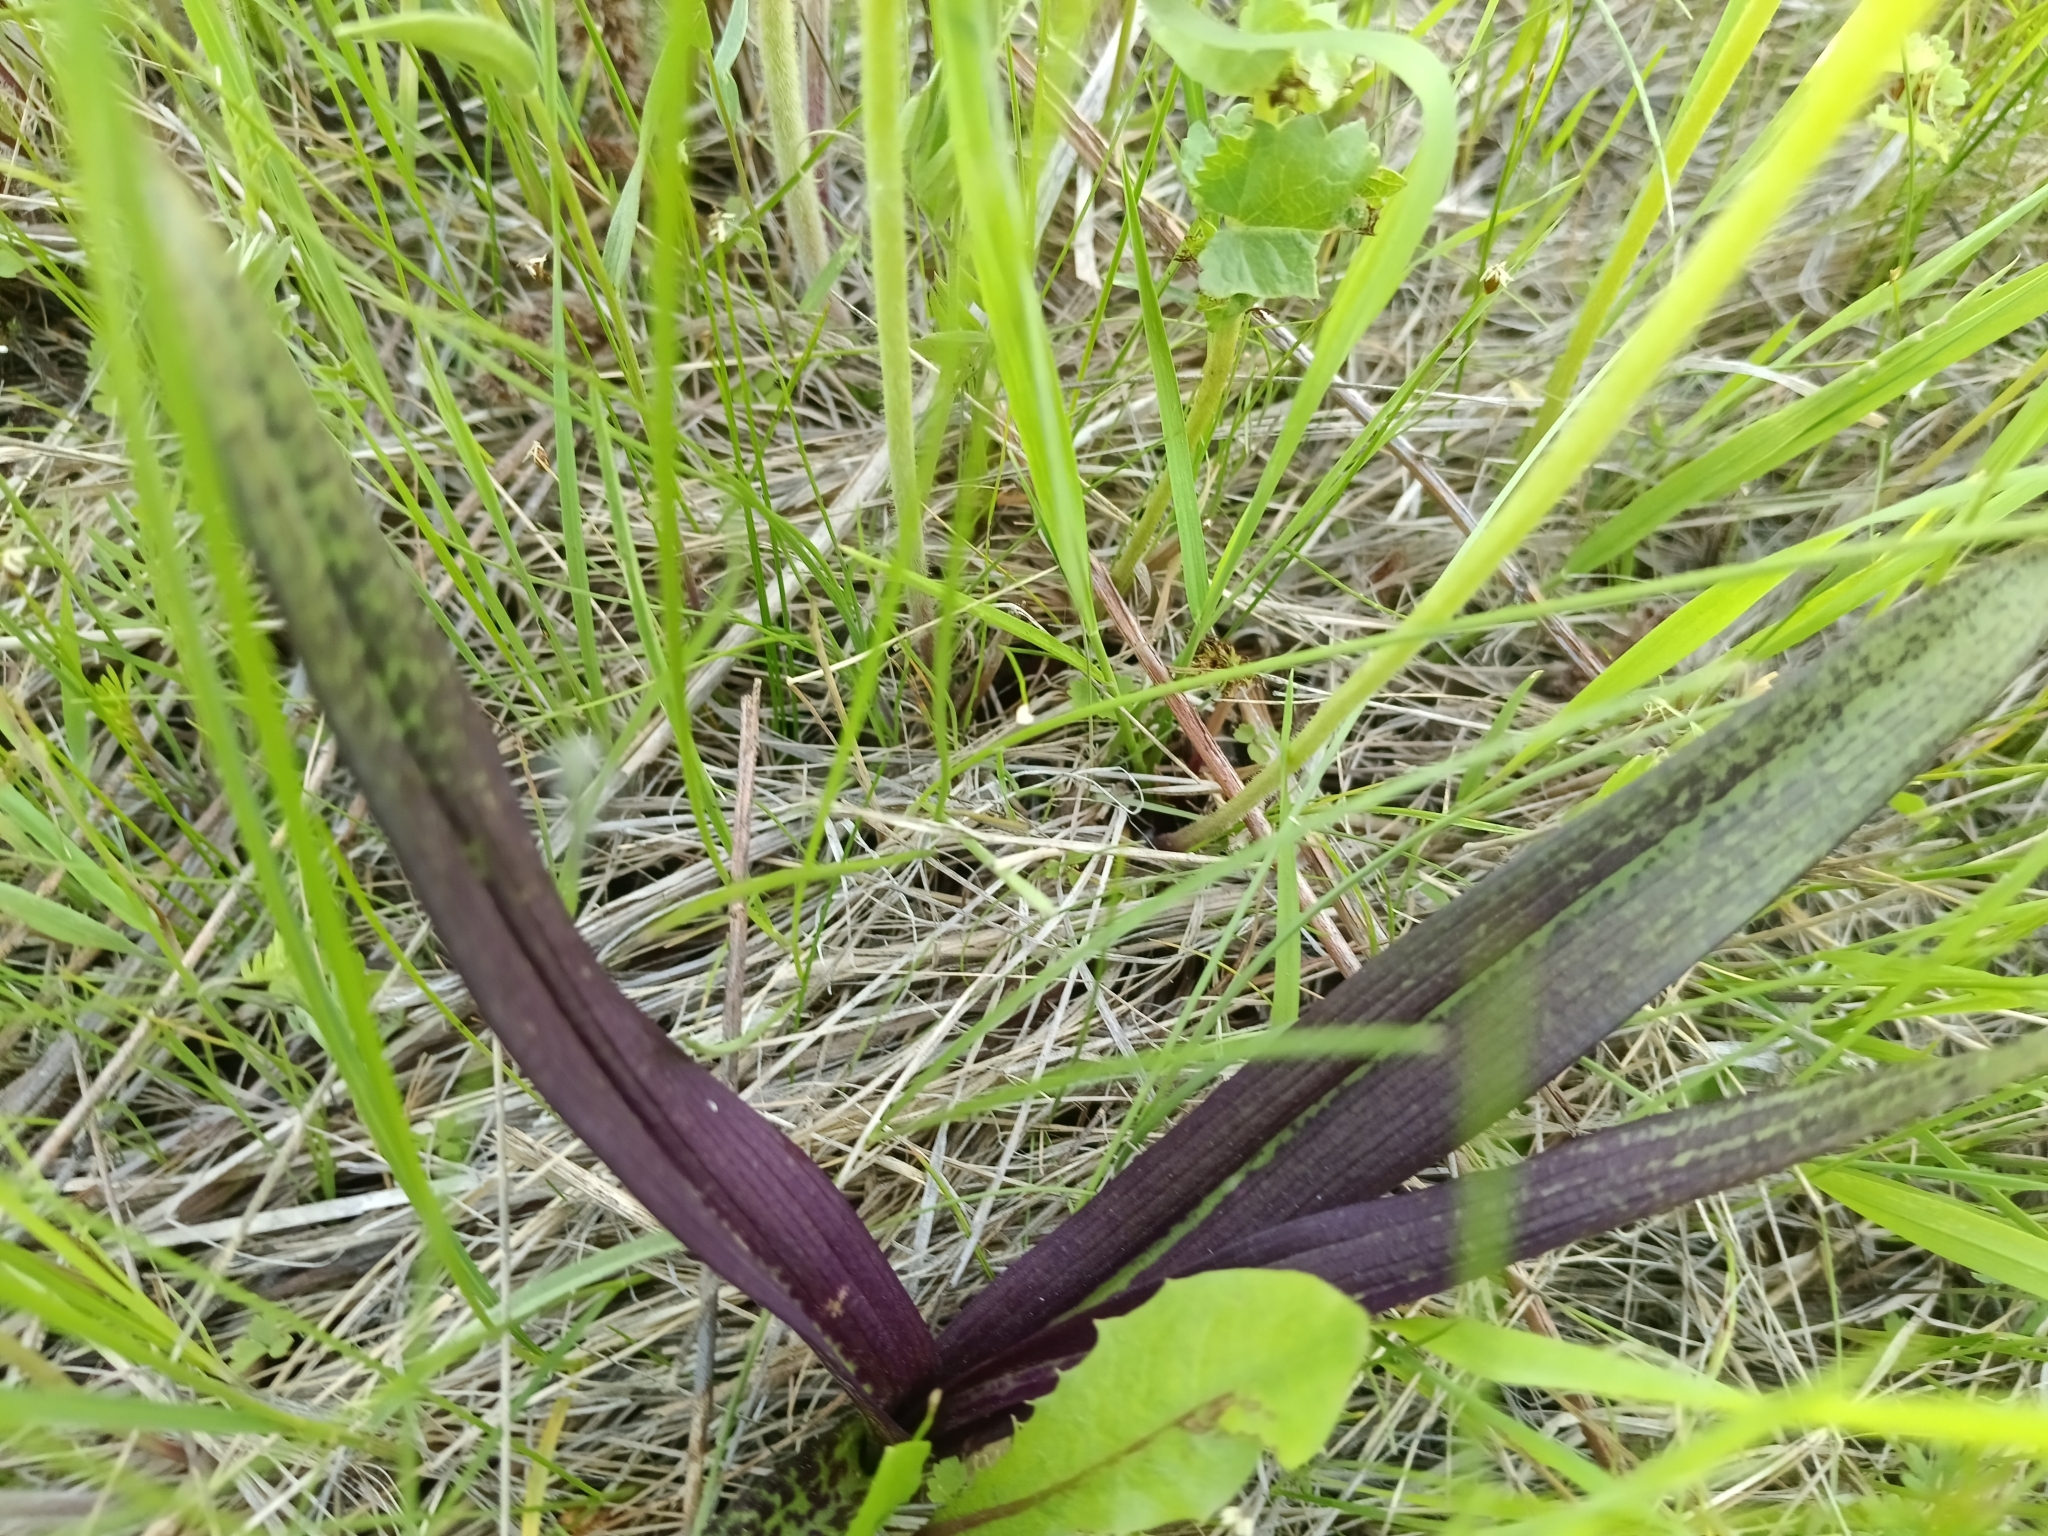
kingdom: Plantae
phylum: Tracheophyta
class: Liliopsida
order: Asparagales
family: Orchidaceae
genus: Dactylorhiza
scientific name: Dactylorhiza incarnata
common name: Early marsh-orchid
